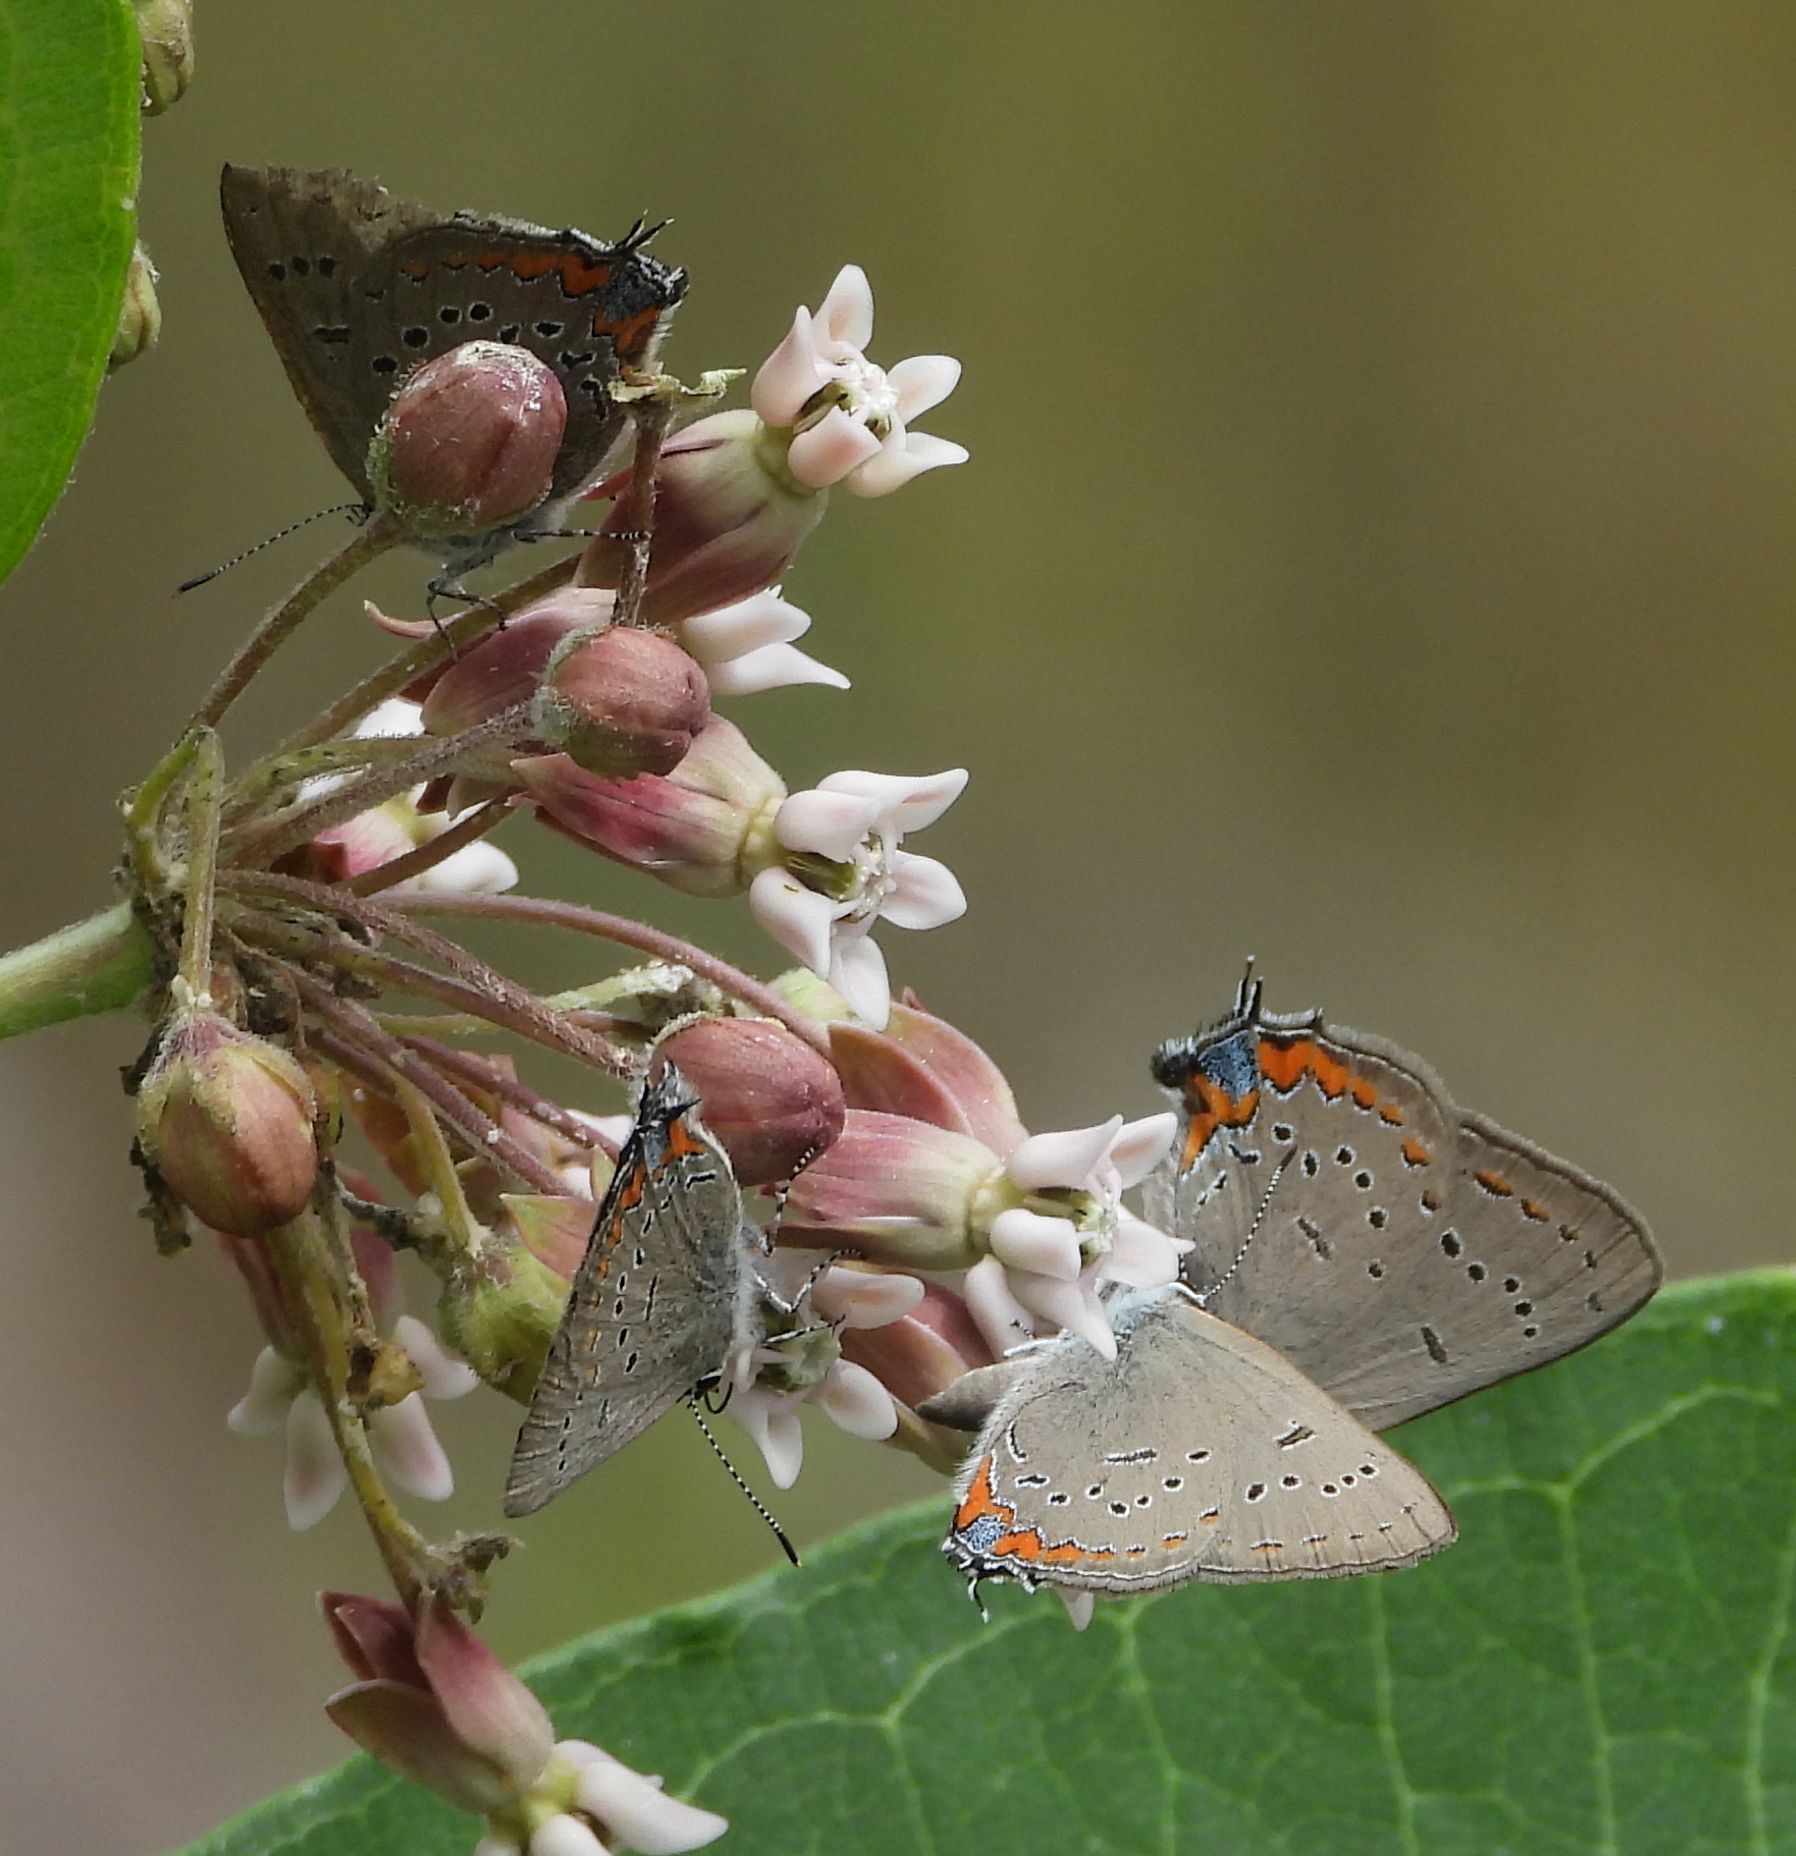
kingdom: Animalia
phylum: Arthropoda
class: Insecta
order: Lepidoptera
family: Lycaenidae
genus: Strymon
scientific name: Strymon acadica
